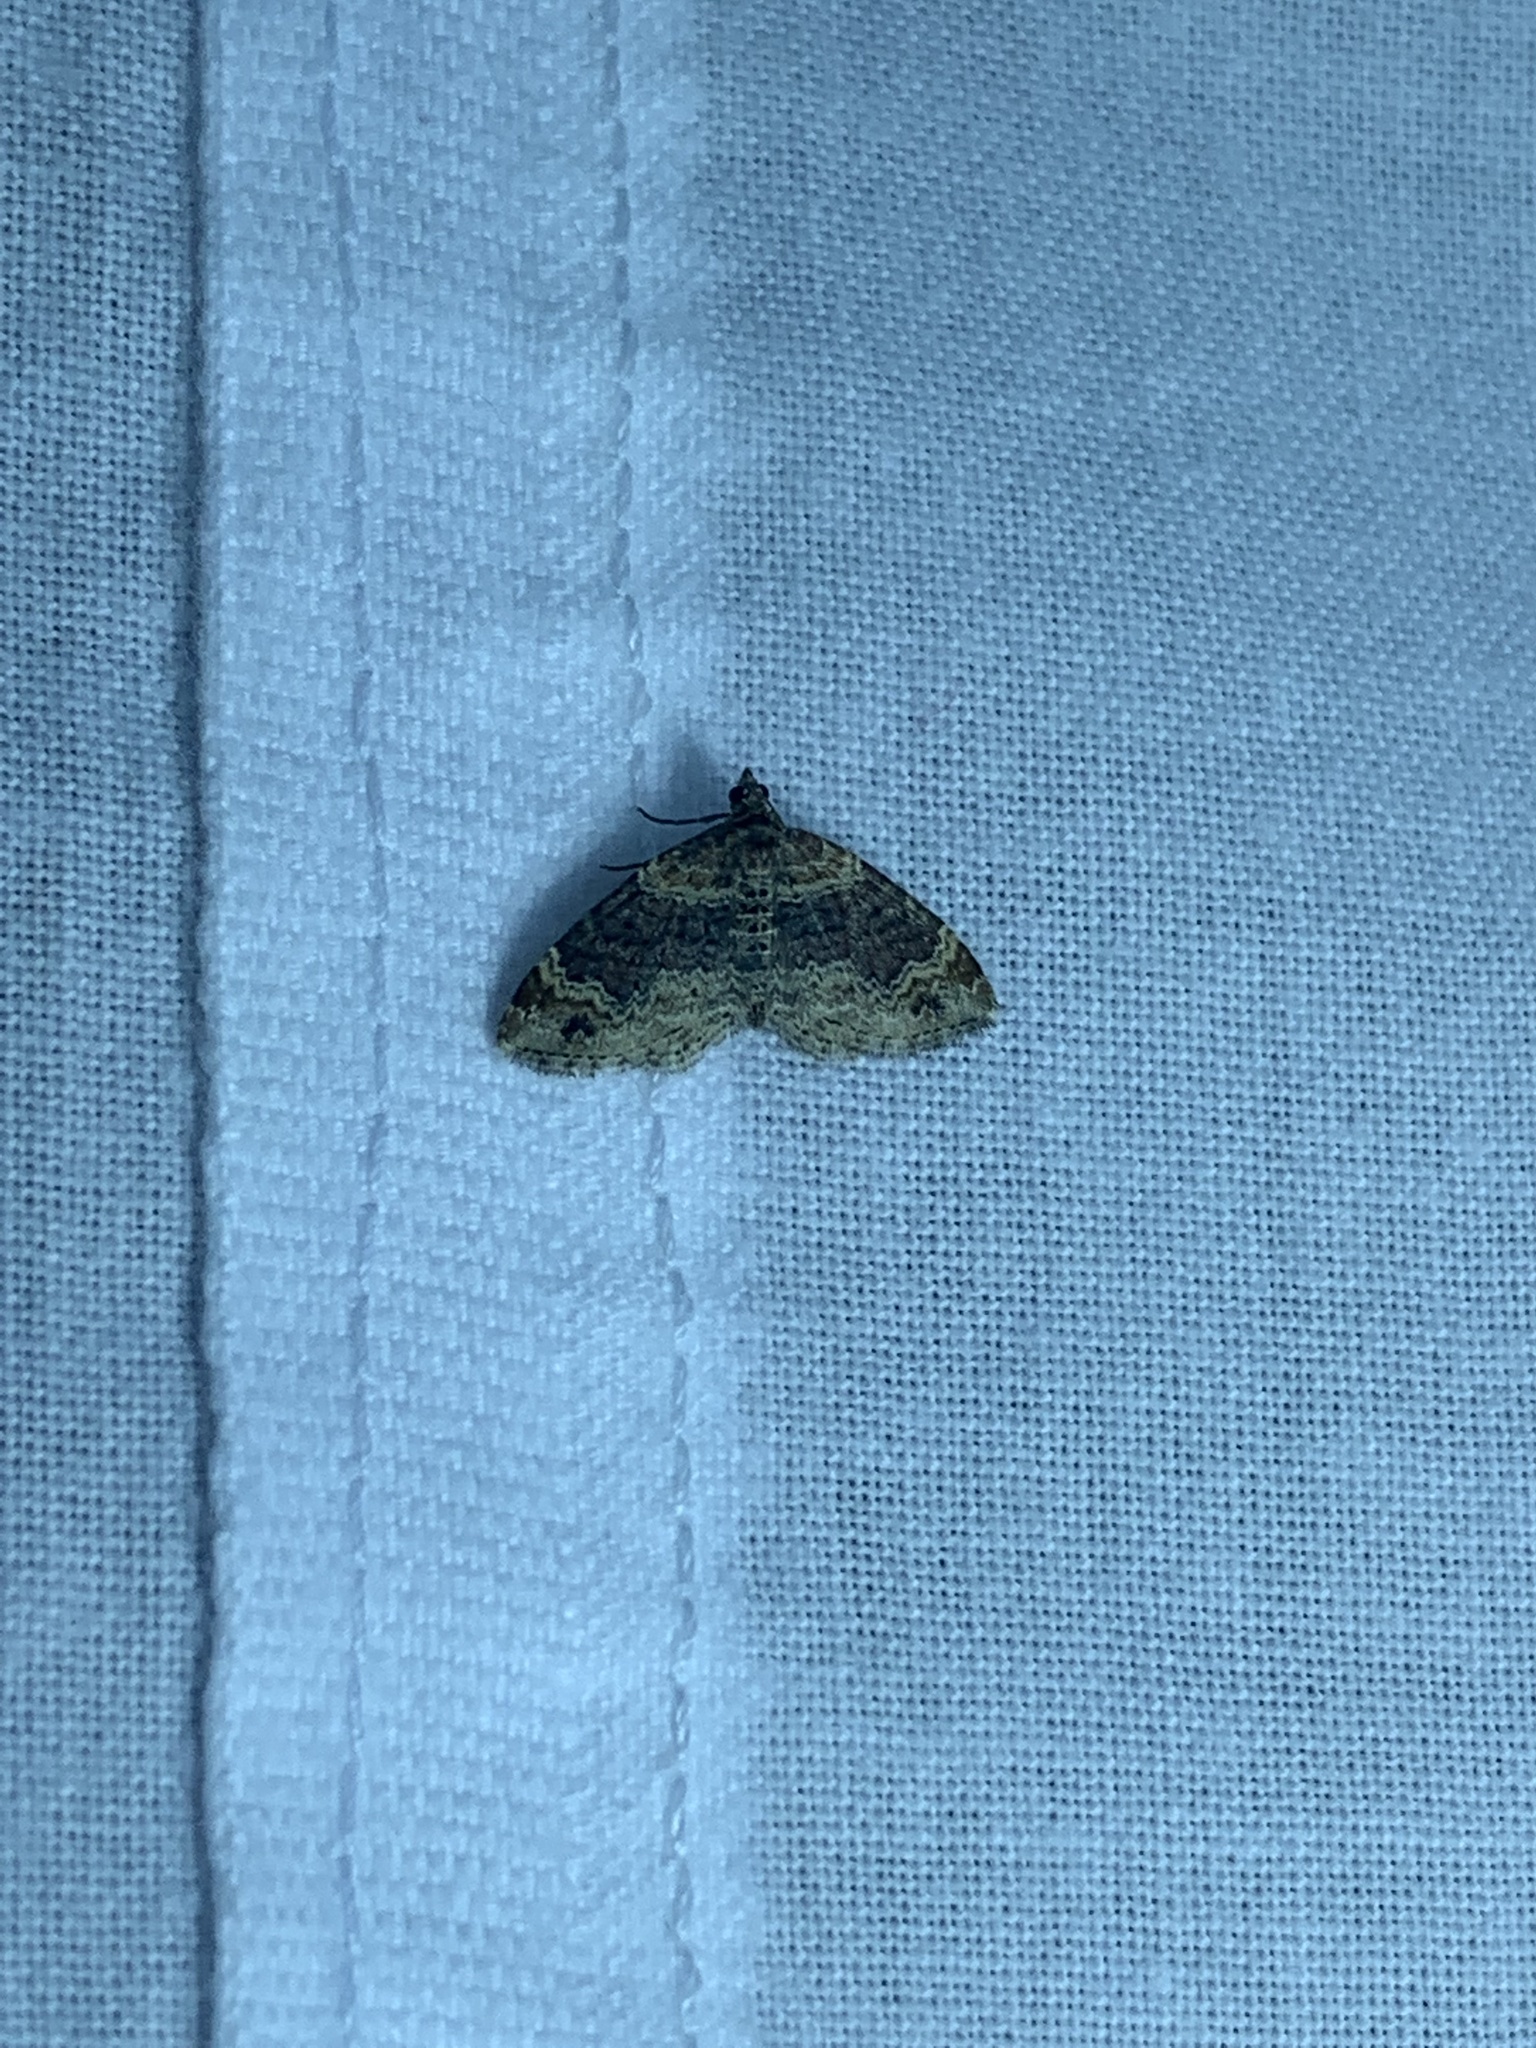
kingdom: Animalia
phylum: Arthropoda
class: Insecta
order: Lepidoptera
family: Geometridae
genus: Xanthorhoe
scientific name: Xanthorhoe ferrugata
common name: Dark-barred twin-spot carpet
